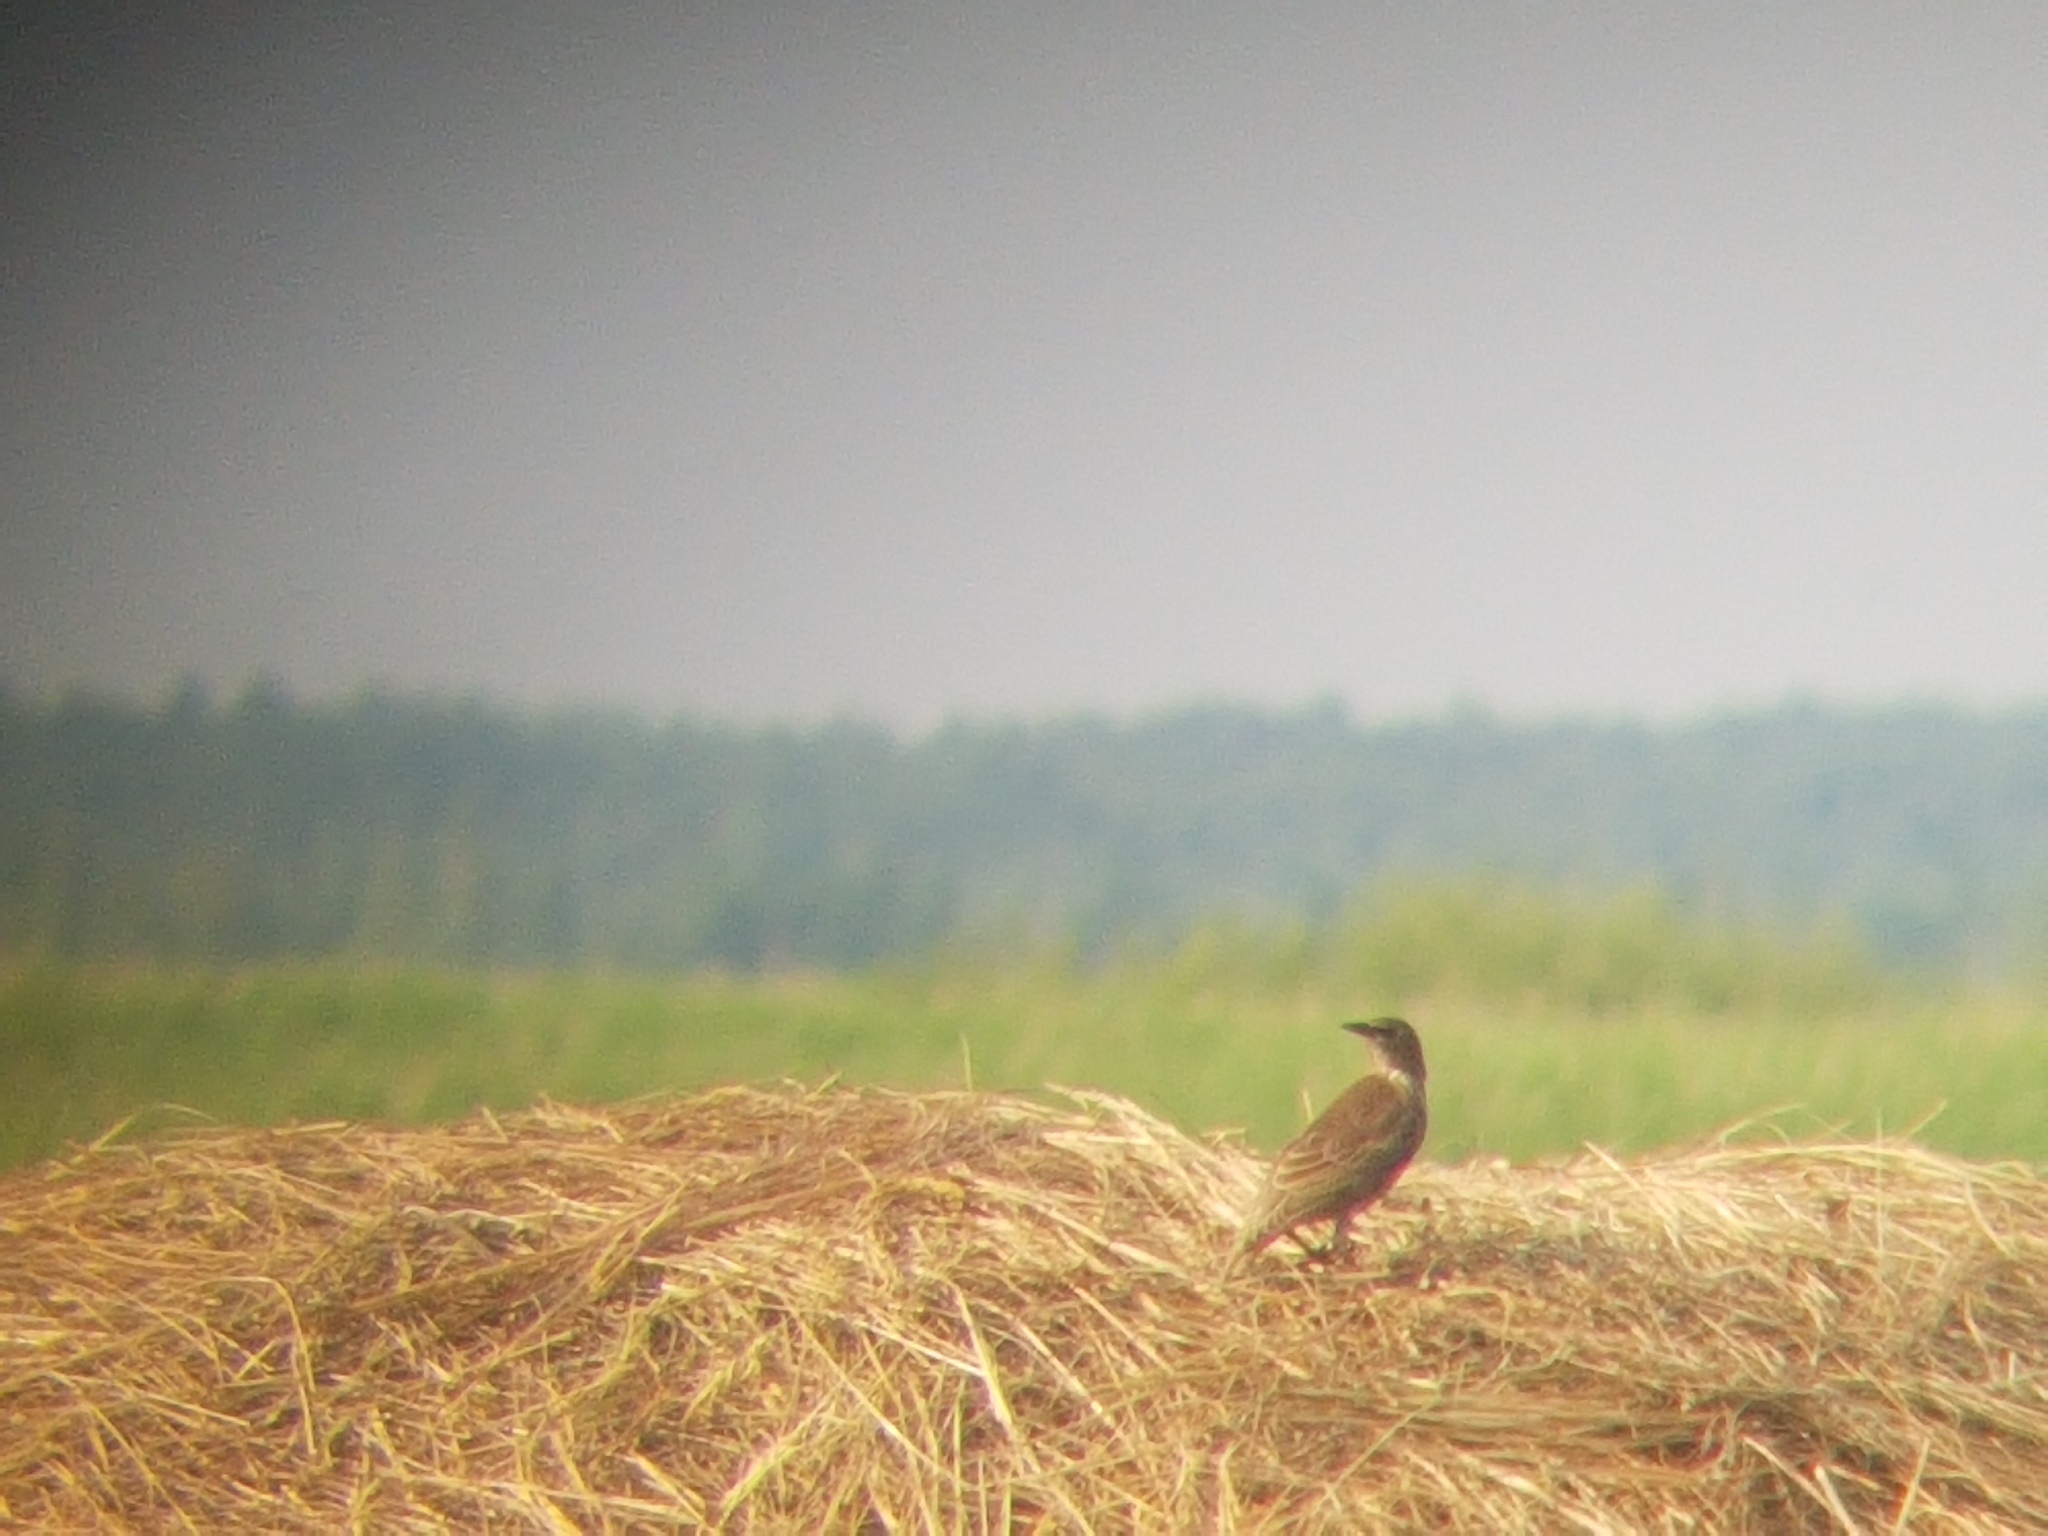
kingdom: Animalia
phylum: Chordata
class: Aves
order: Passeriformes
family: Sturnidae
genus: Sturnus
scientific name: Sturnus vulgaris
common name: Common starling
